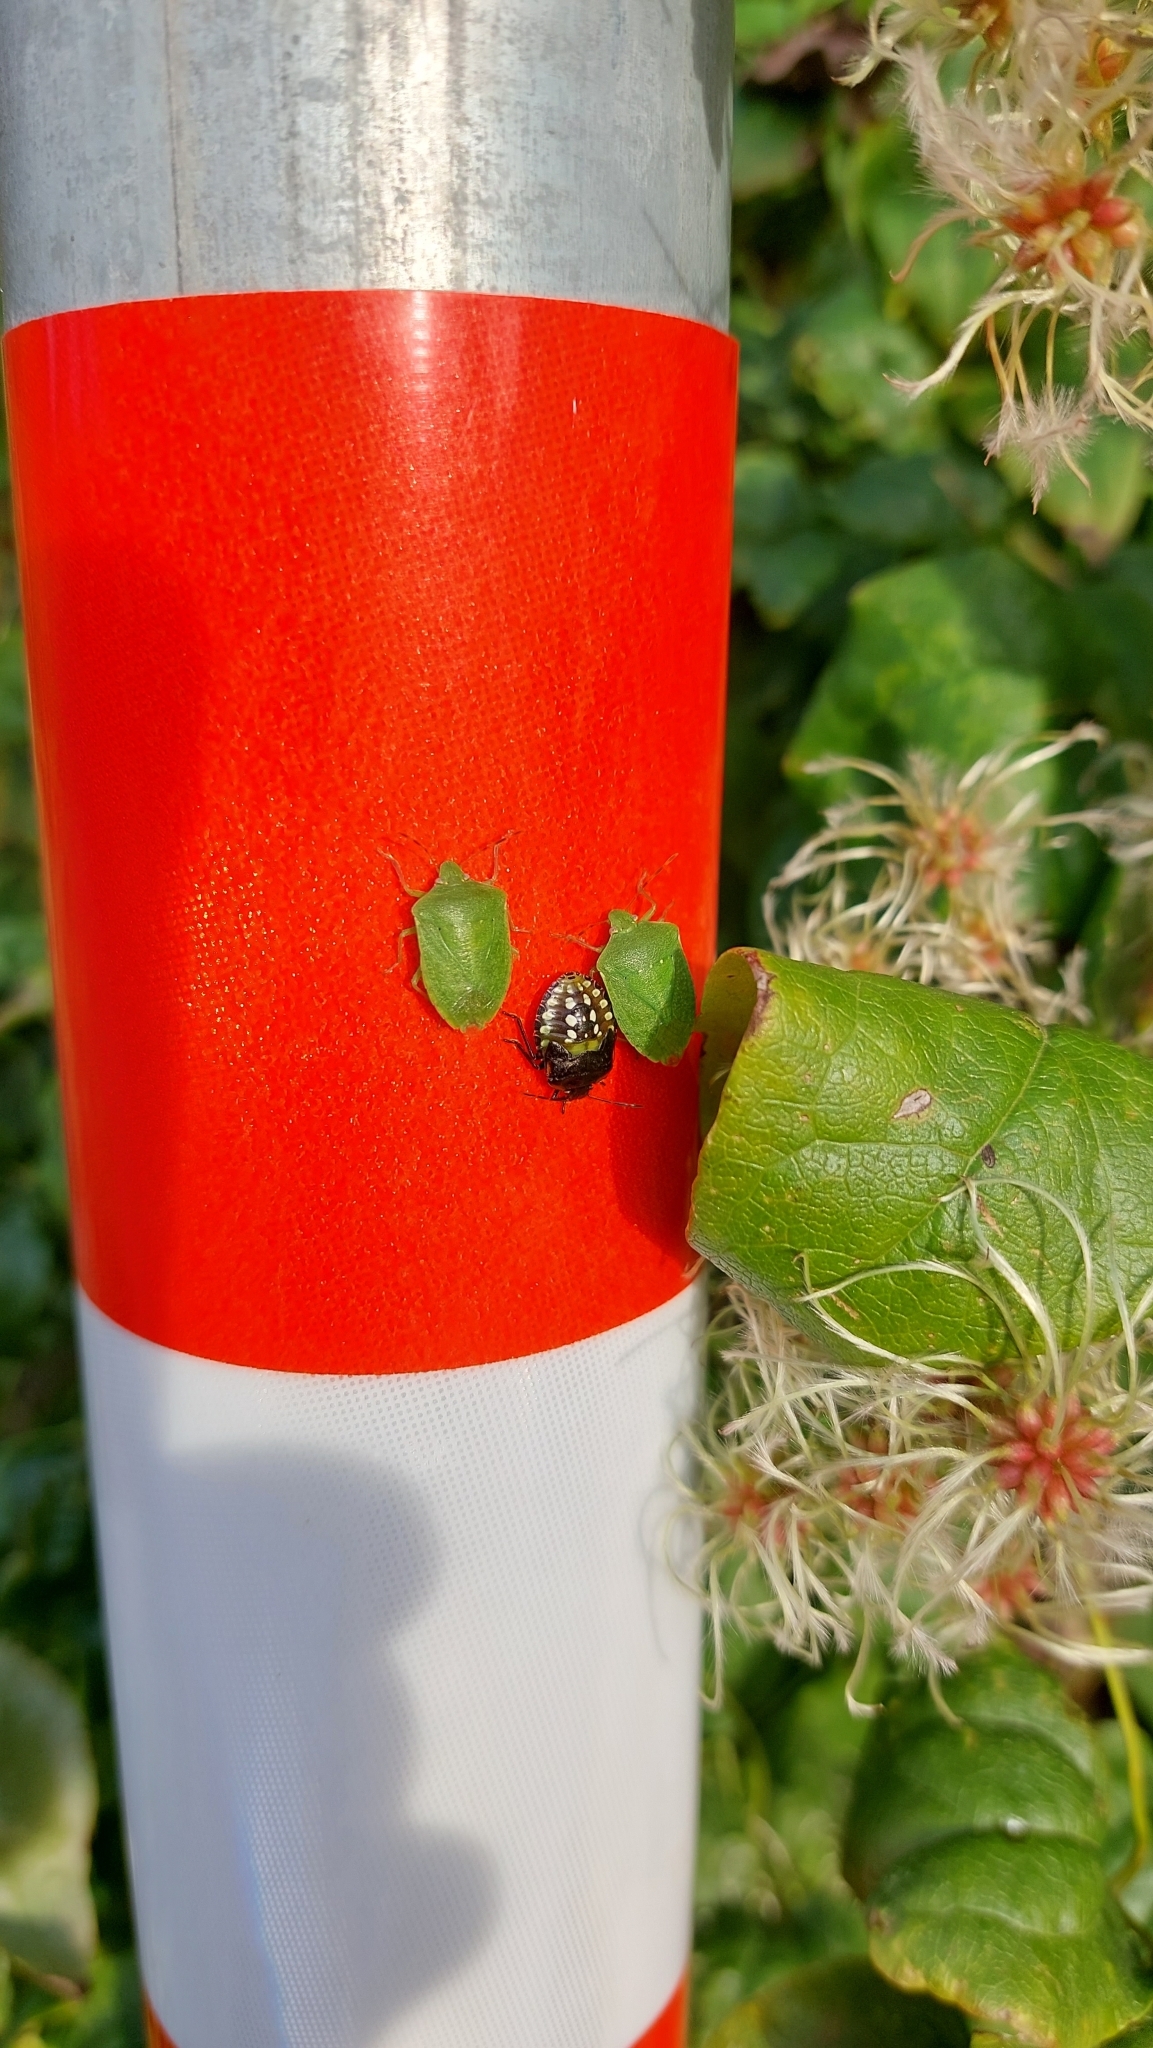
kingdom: Animalia
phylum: Arthropoda
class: Insecta
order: Hemiptera
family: Pentatomidae
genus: Nezara
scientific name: Nezara viridula
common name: Southern green stink bug
